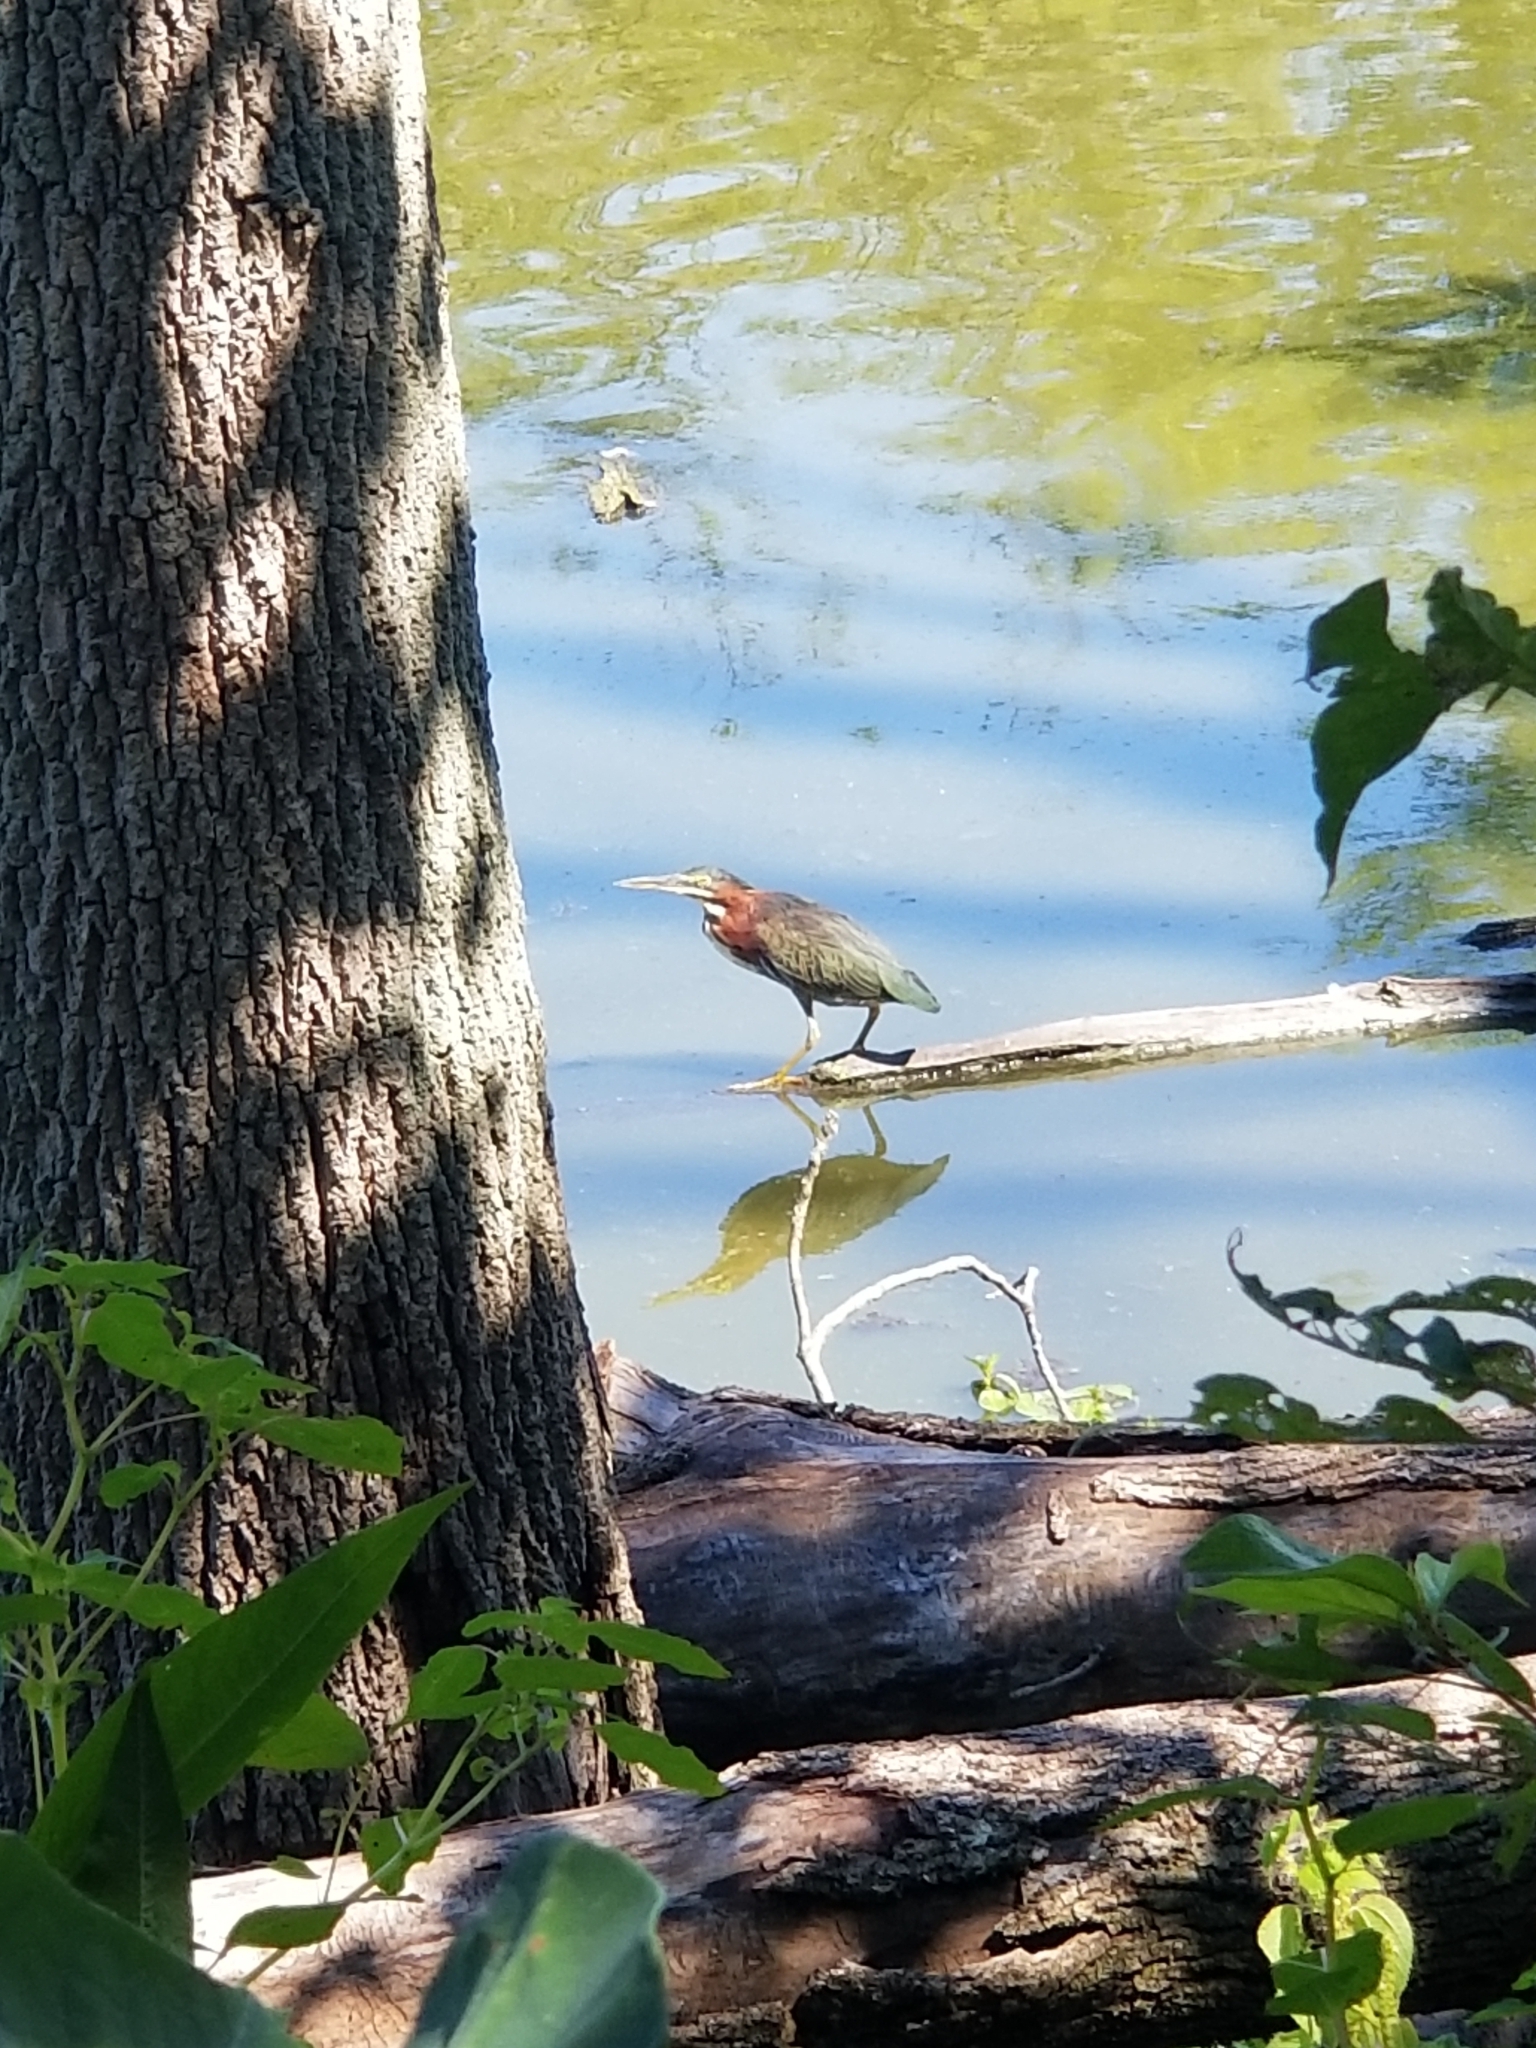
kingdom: Animalia
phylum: Chordata
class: Aves
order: Pelecaniformes
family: Ardeidae
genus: Butorides
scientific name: Butorides virescens
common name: Green heron
